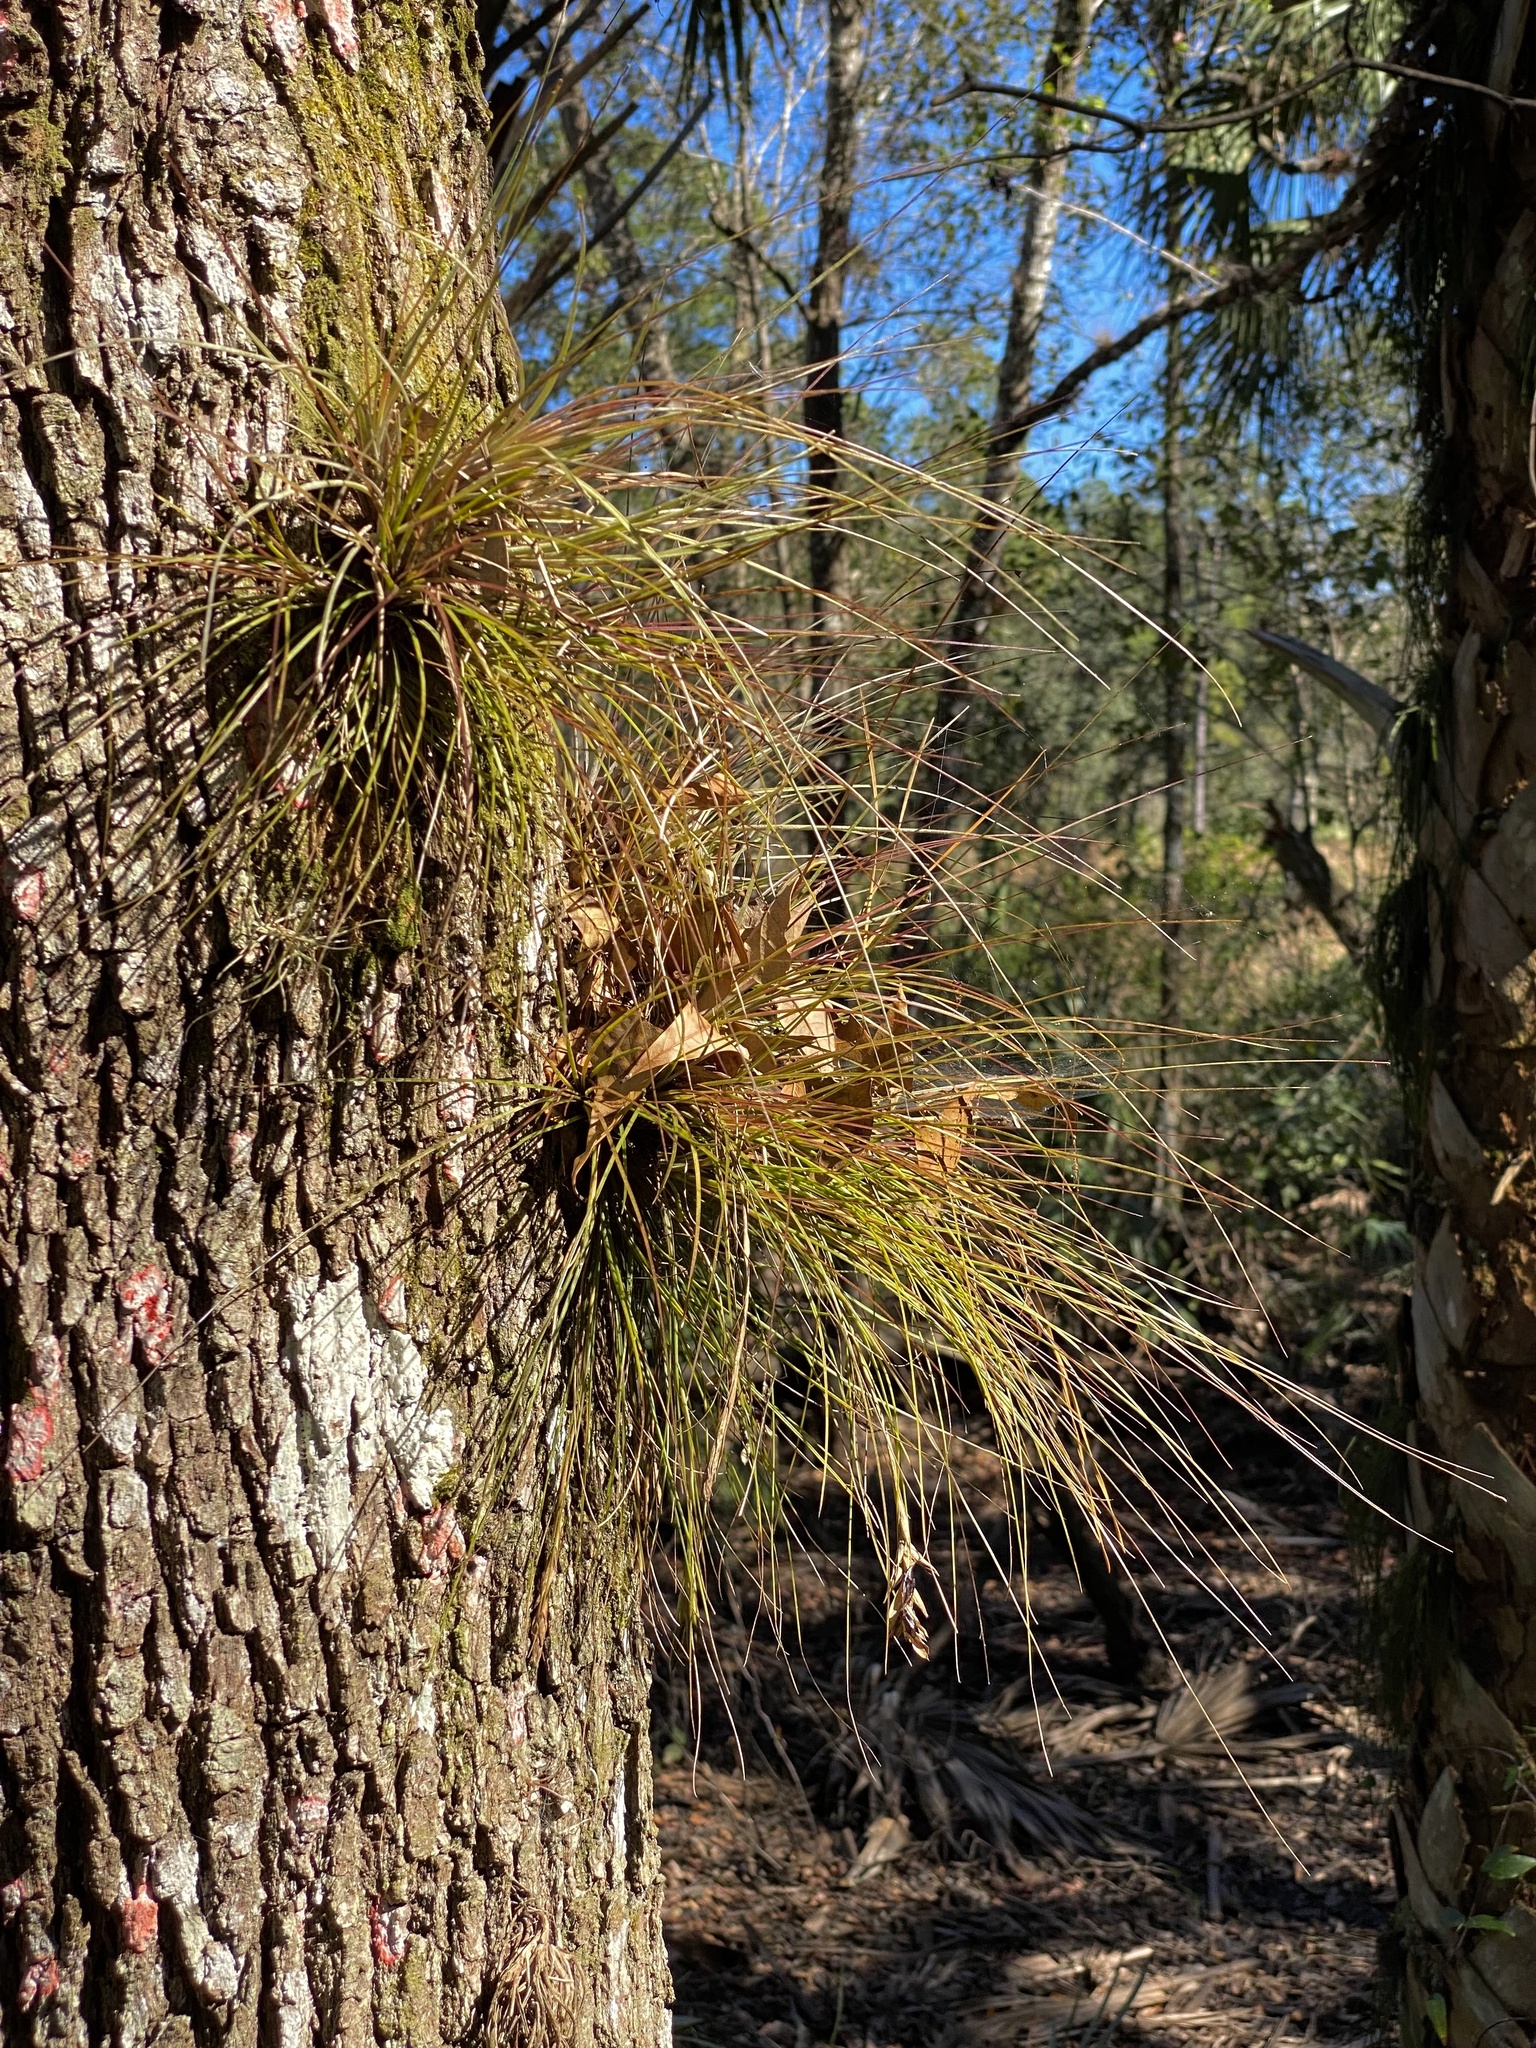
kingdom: Plantae
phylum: Tracheophyta
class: Liliopsida
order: Poales
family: Bromeliaceae
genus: Tillandsia
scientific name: Tillandsia setacea
